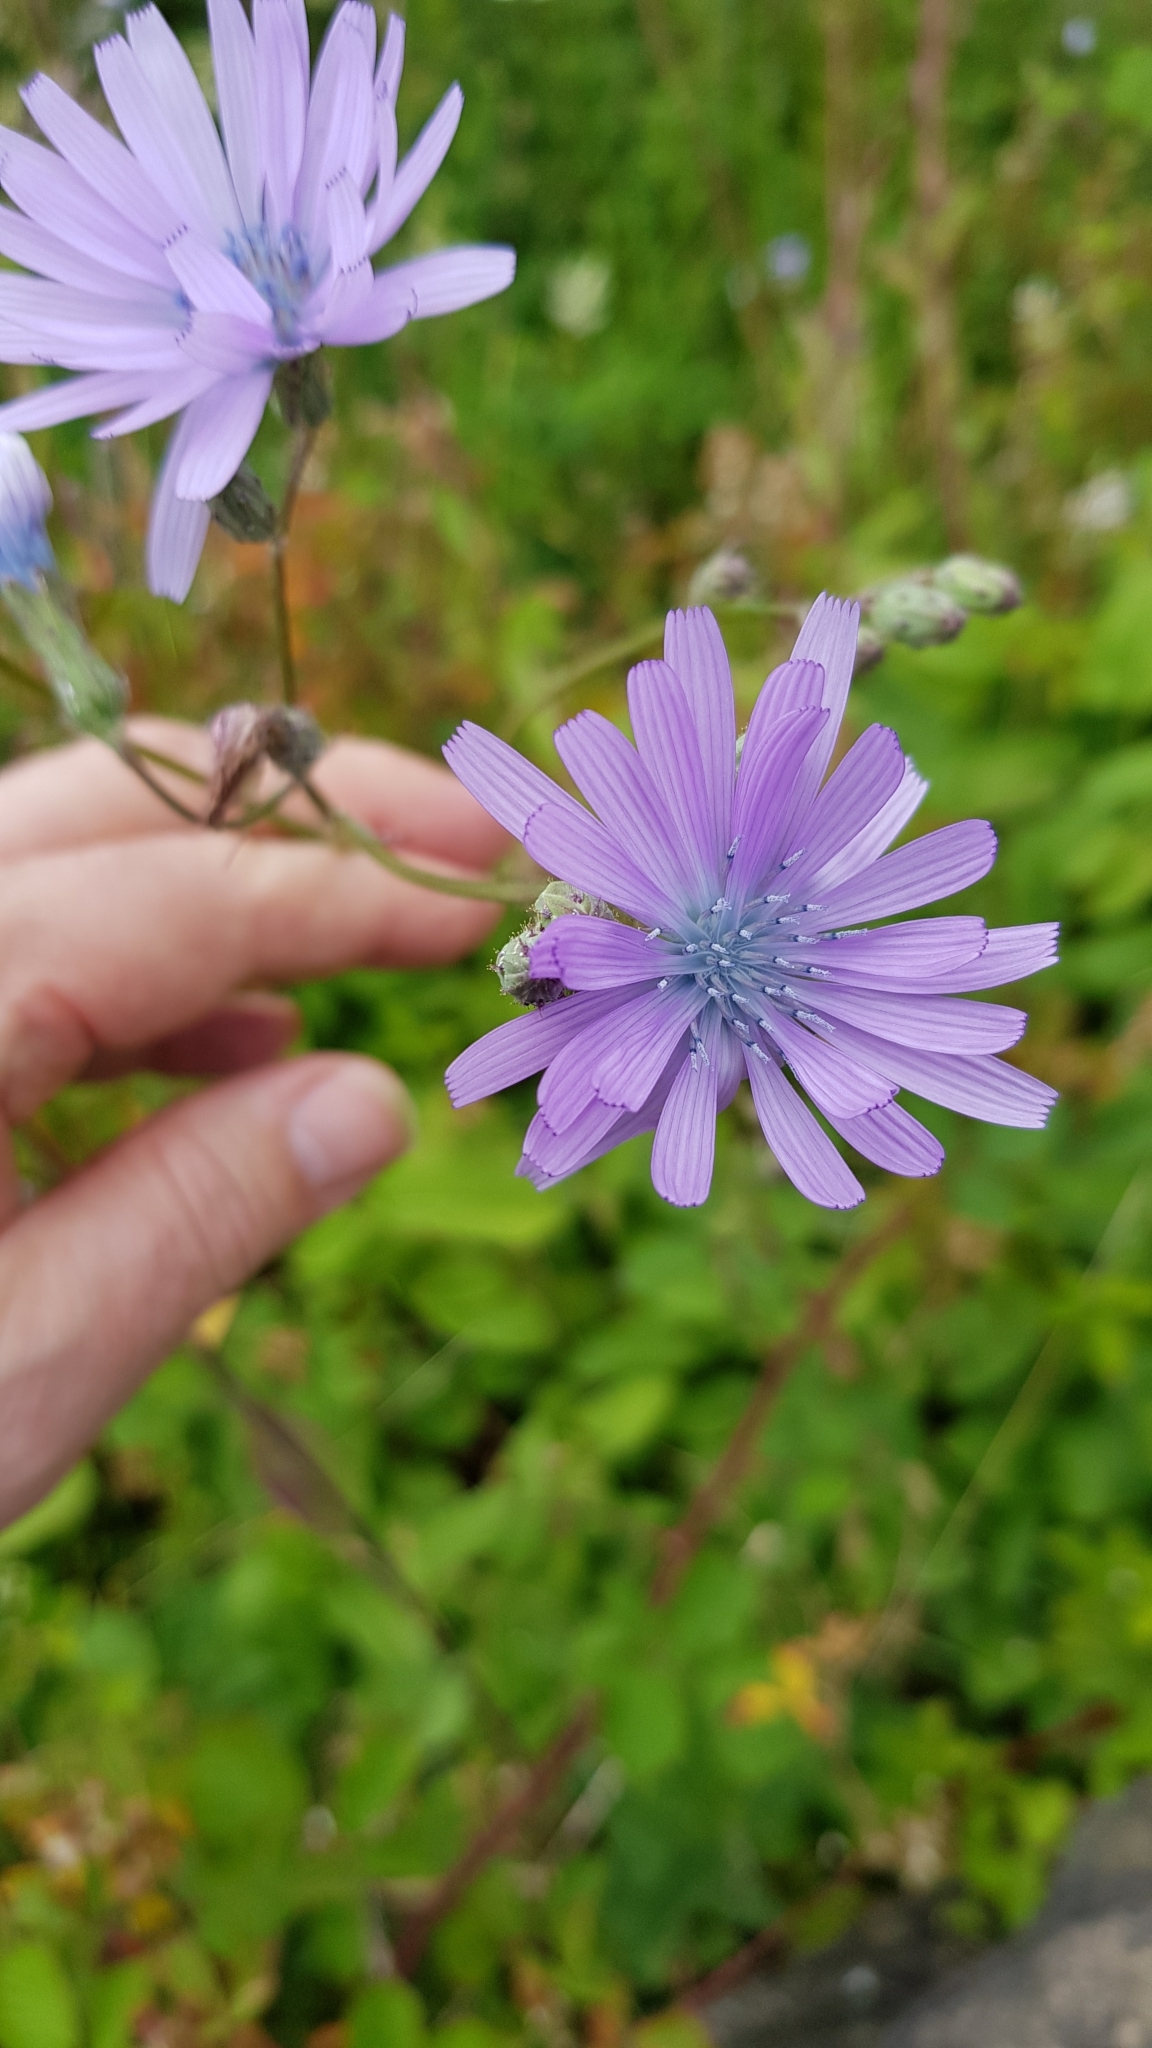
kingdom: Plantae
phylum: Tracheophyta
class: Magnoliopsida
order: Asterales
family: Asteraceae
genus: Lactuca
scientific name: Lactuca macrophylla
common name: Common blue-sow-thistle
